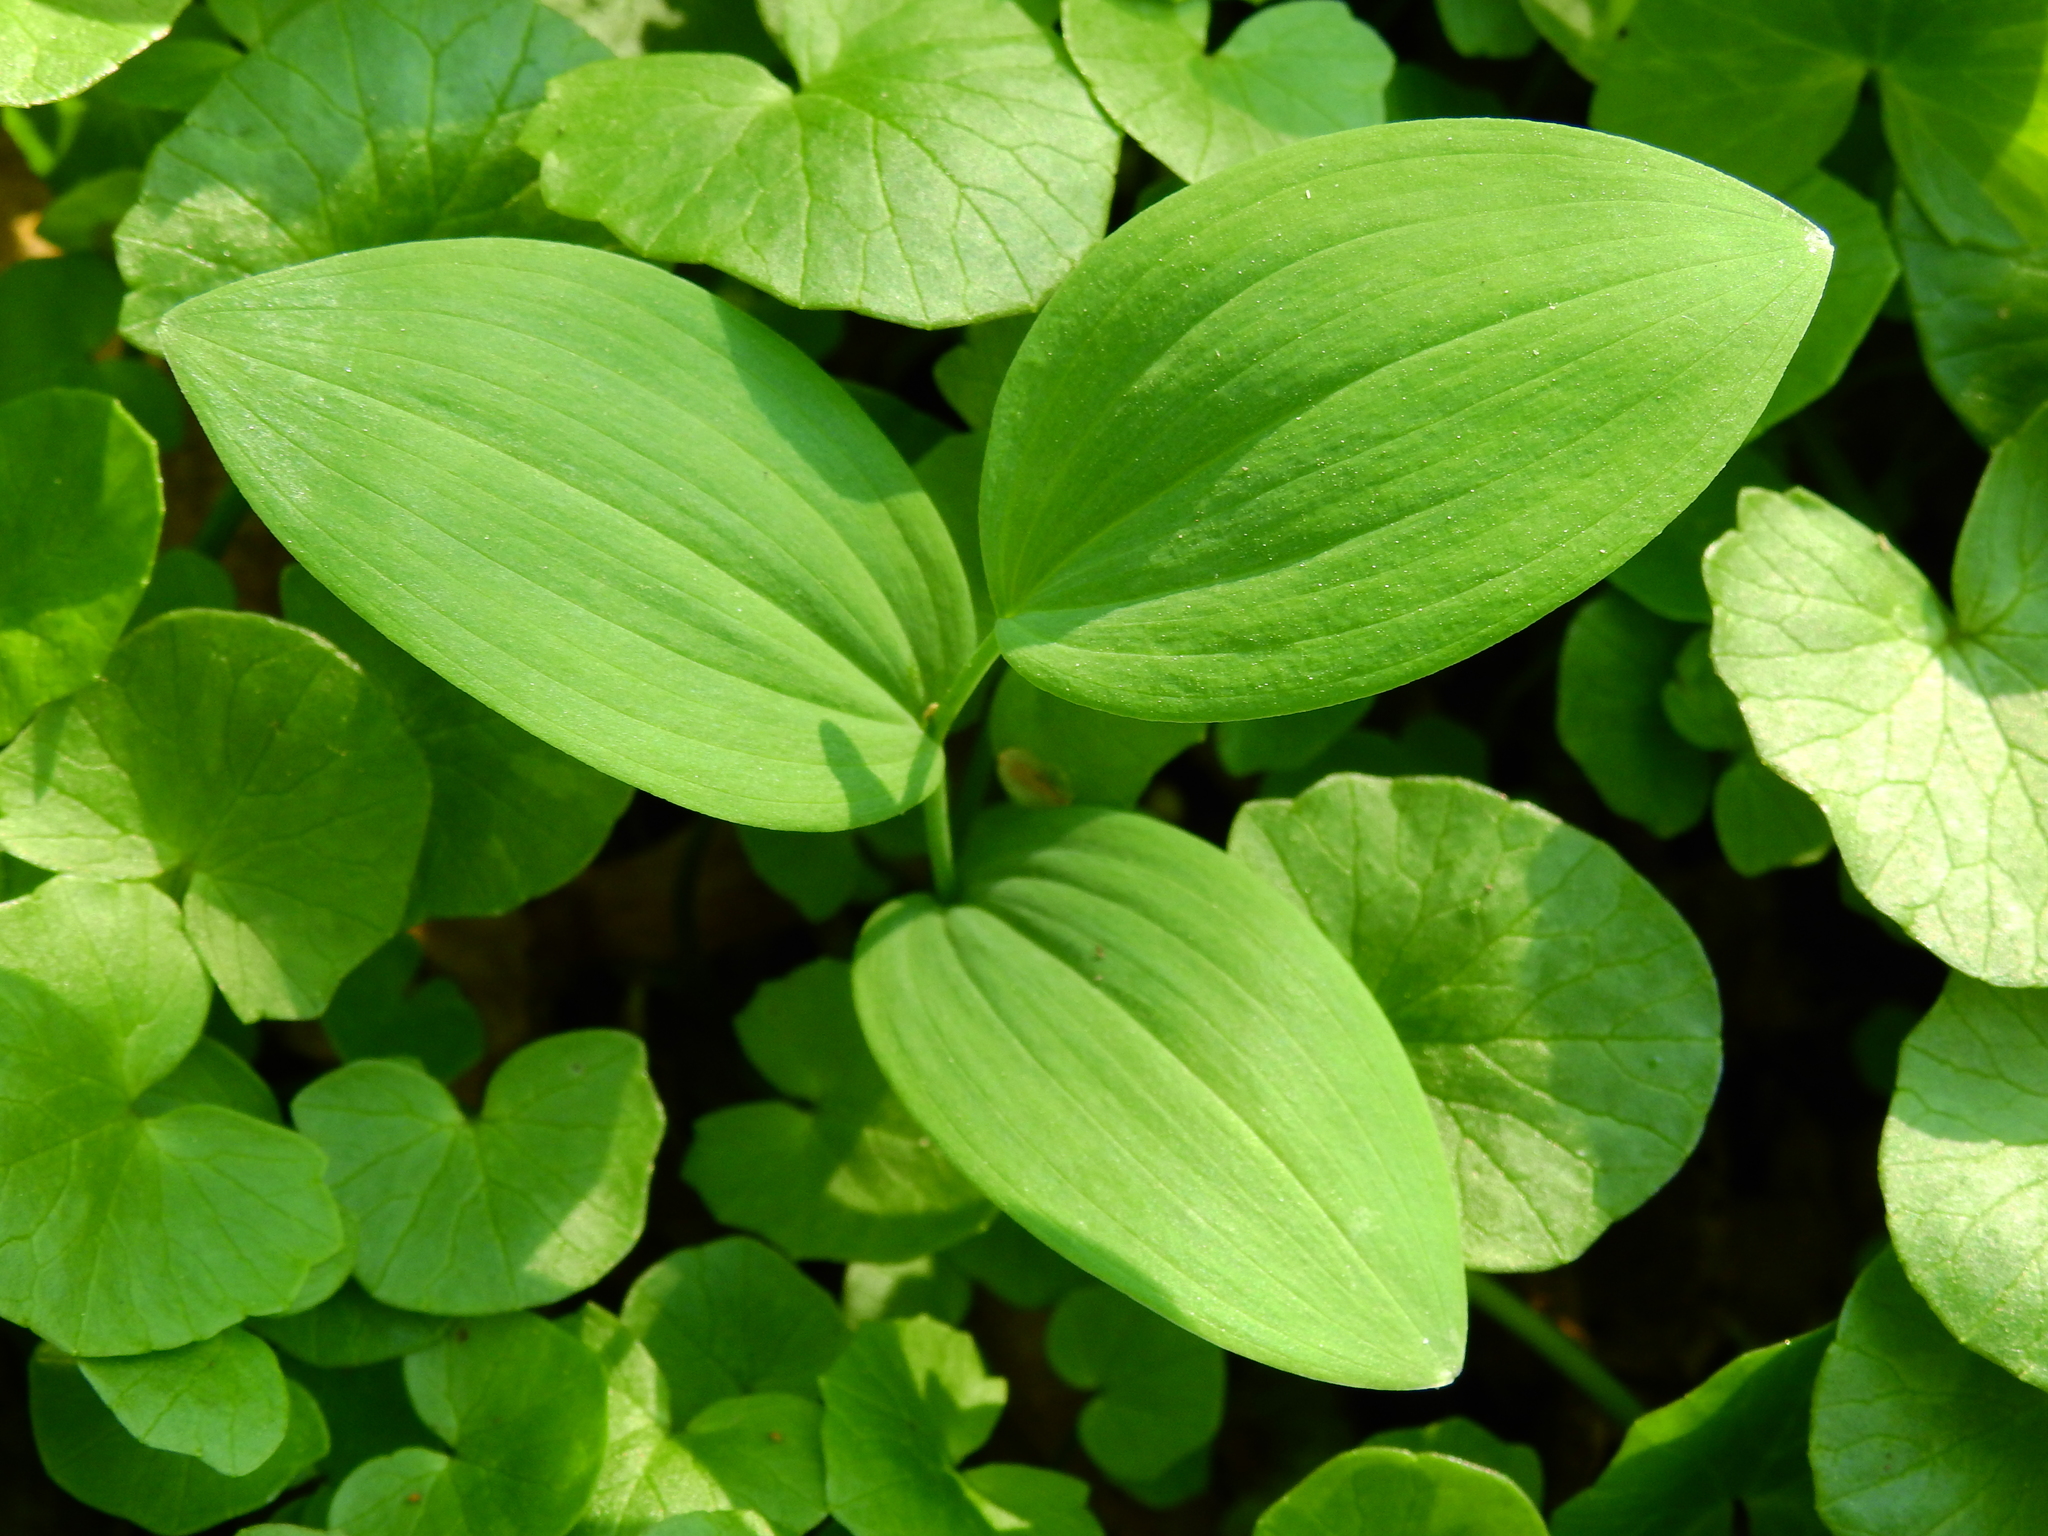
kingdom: Plantae
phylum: Tracheophyta
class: Liliopsida
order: Asparagales
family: Asparagaceae
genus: Polygonatum
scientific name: Polygonatum biflorum
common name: American solomon's-seal
